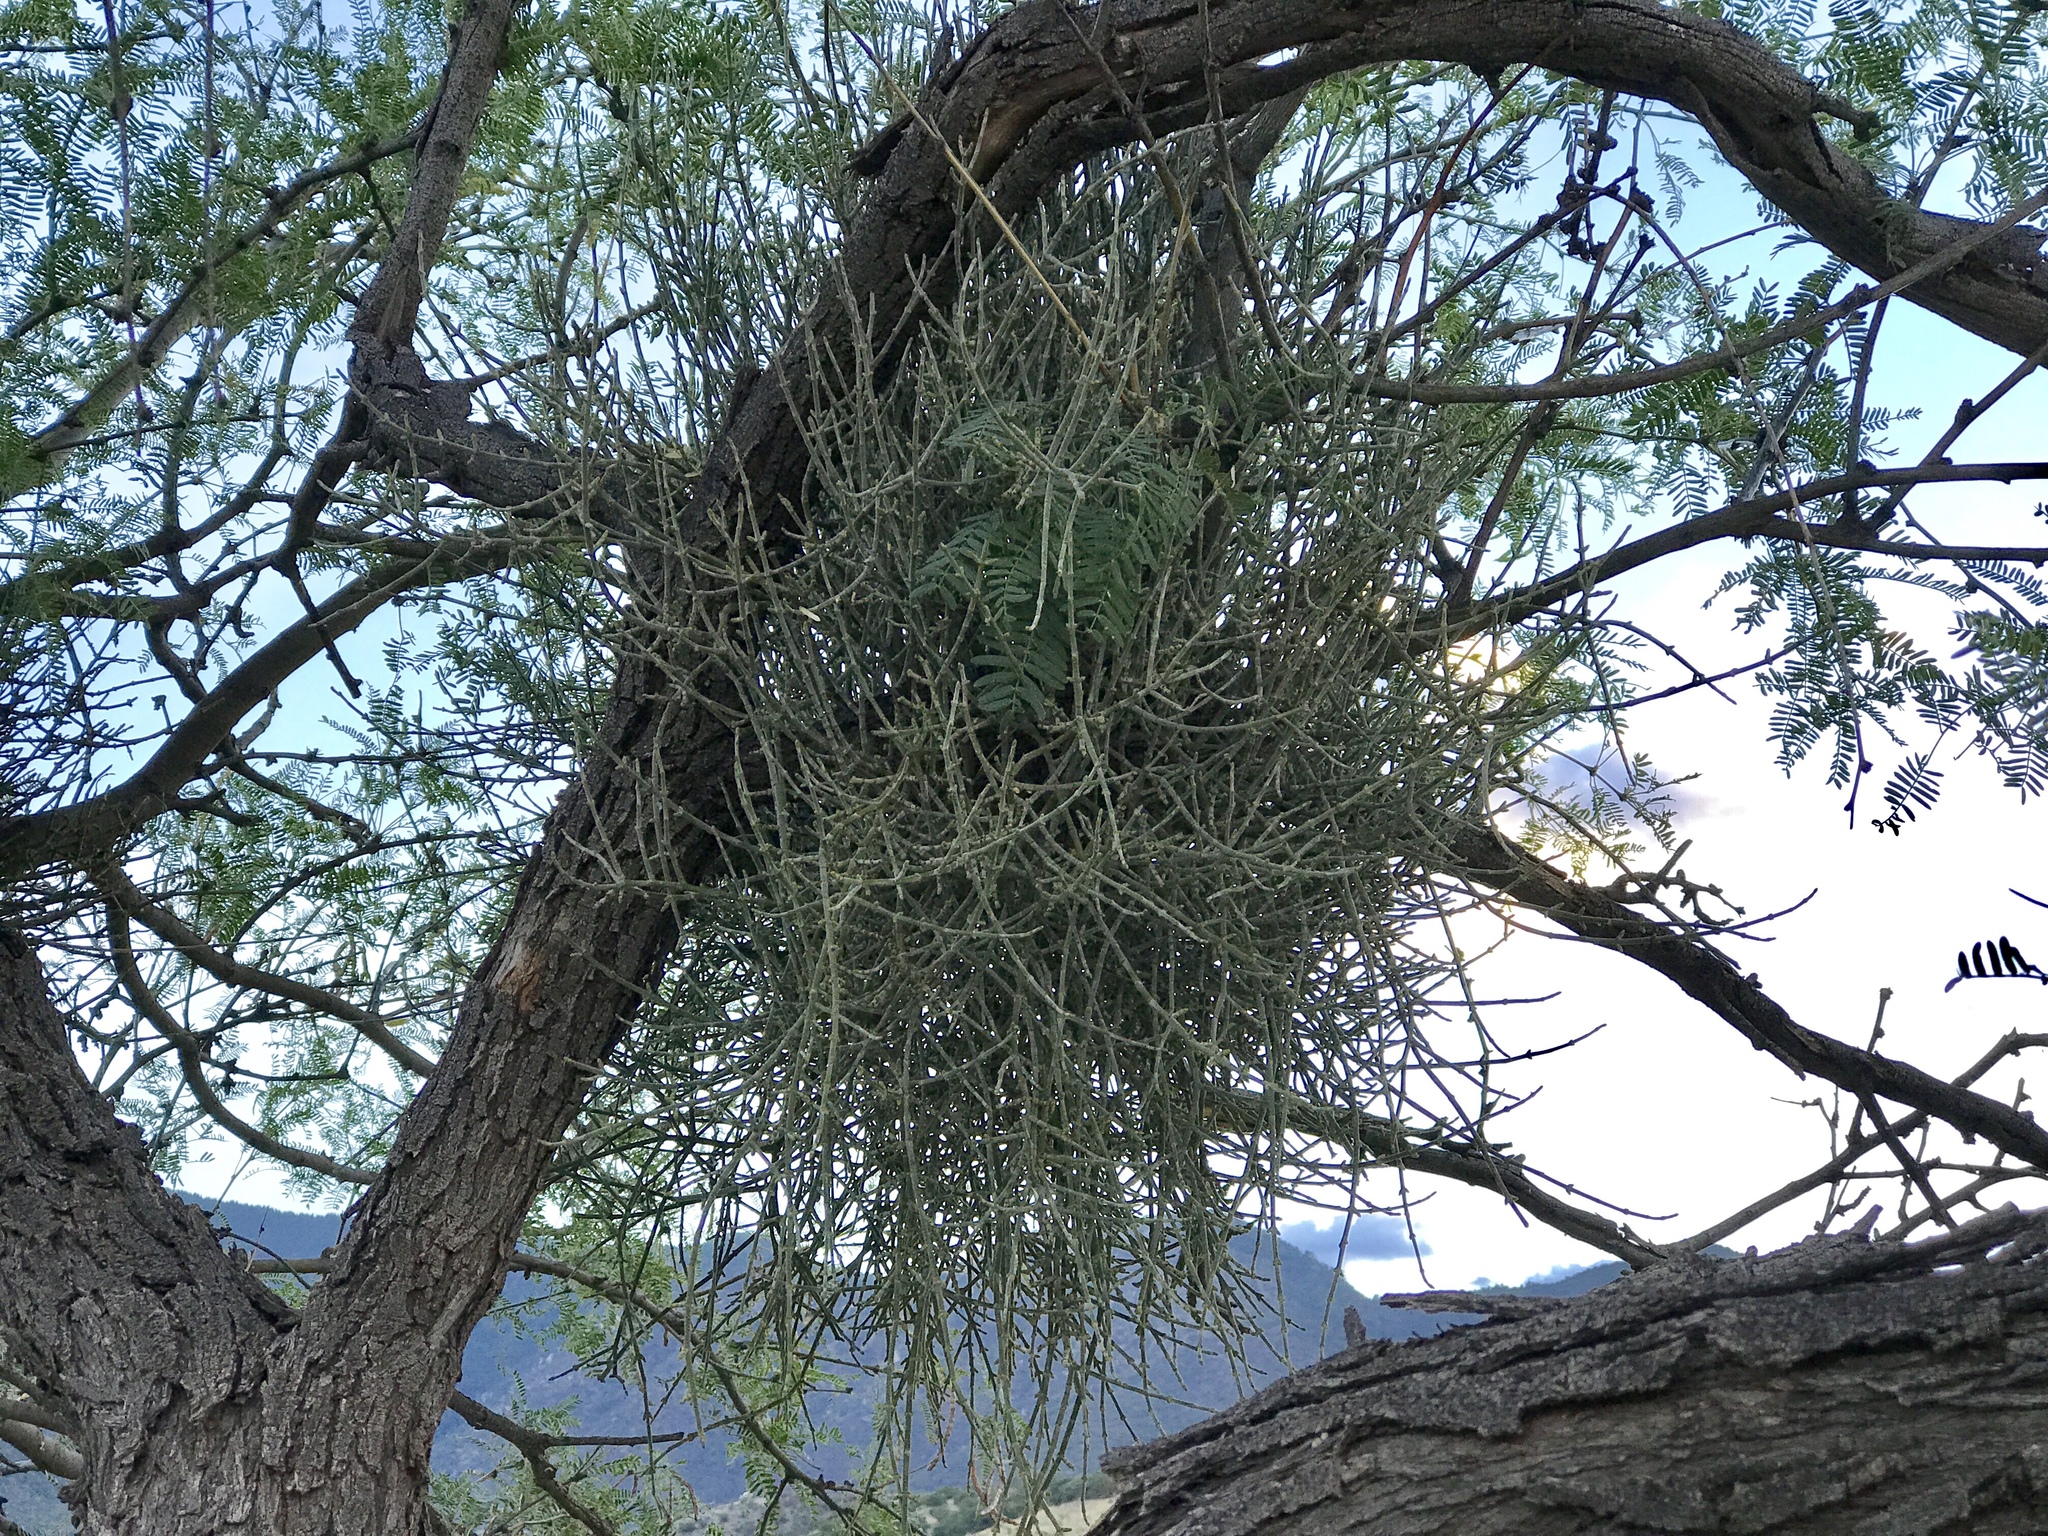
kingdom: Plantae
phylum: Tracheophyta
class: Magnoliopsida
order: Santalales
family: Viscaceae
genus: Phoradendron
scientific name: Phoradendron californicum
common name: Acacia mistletoe
